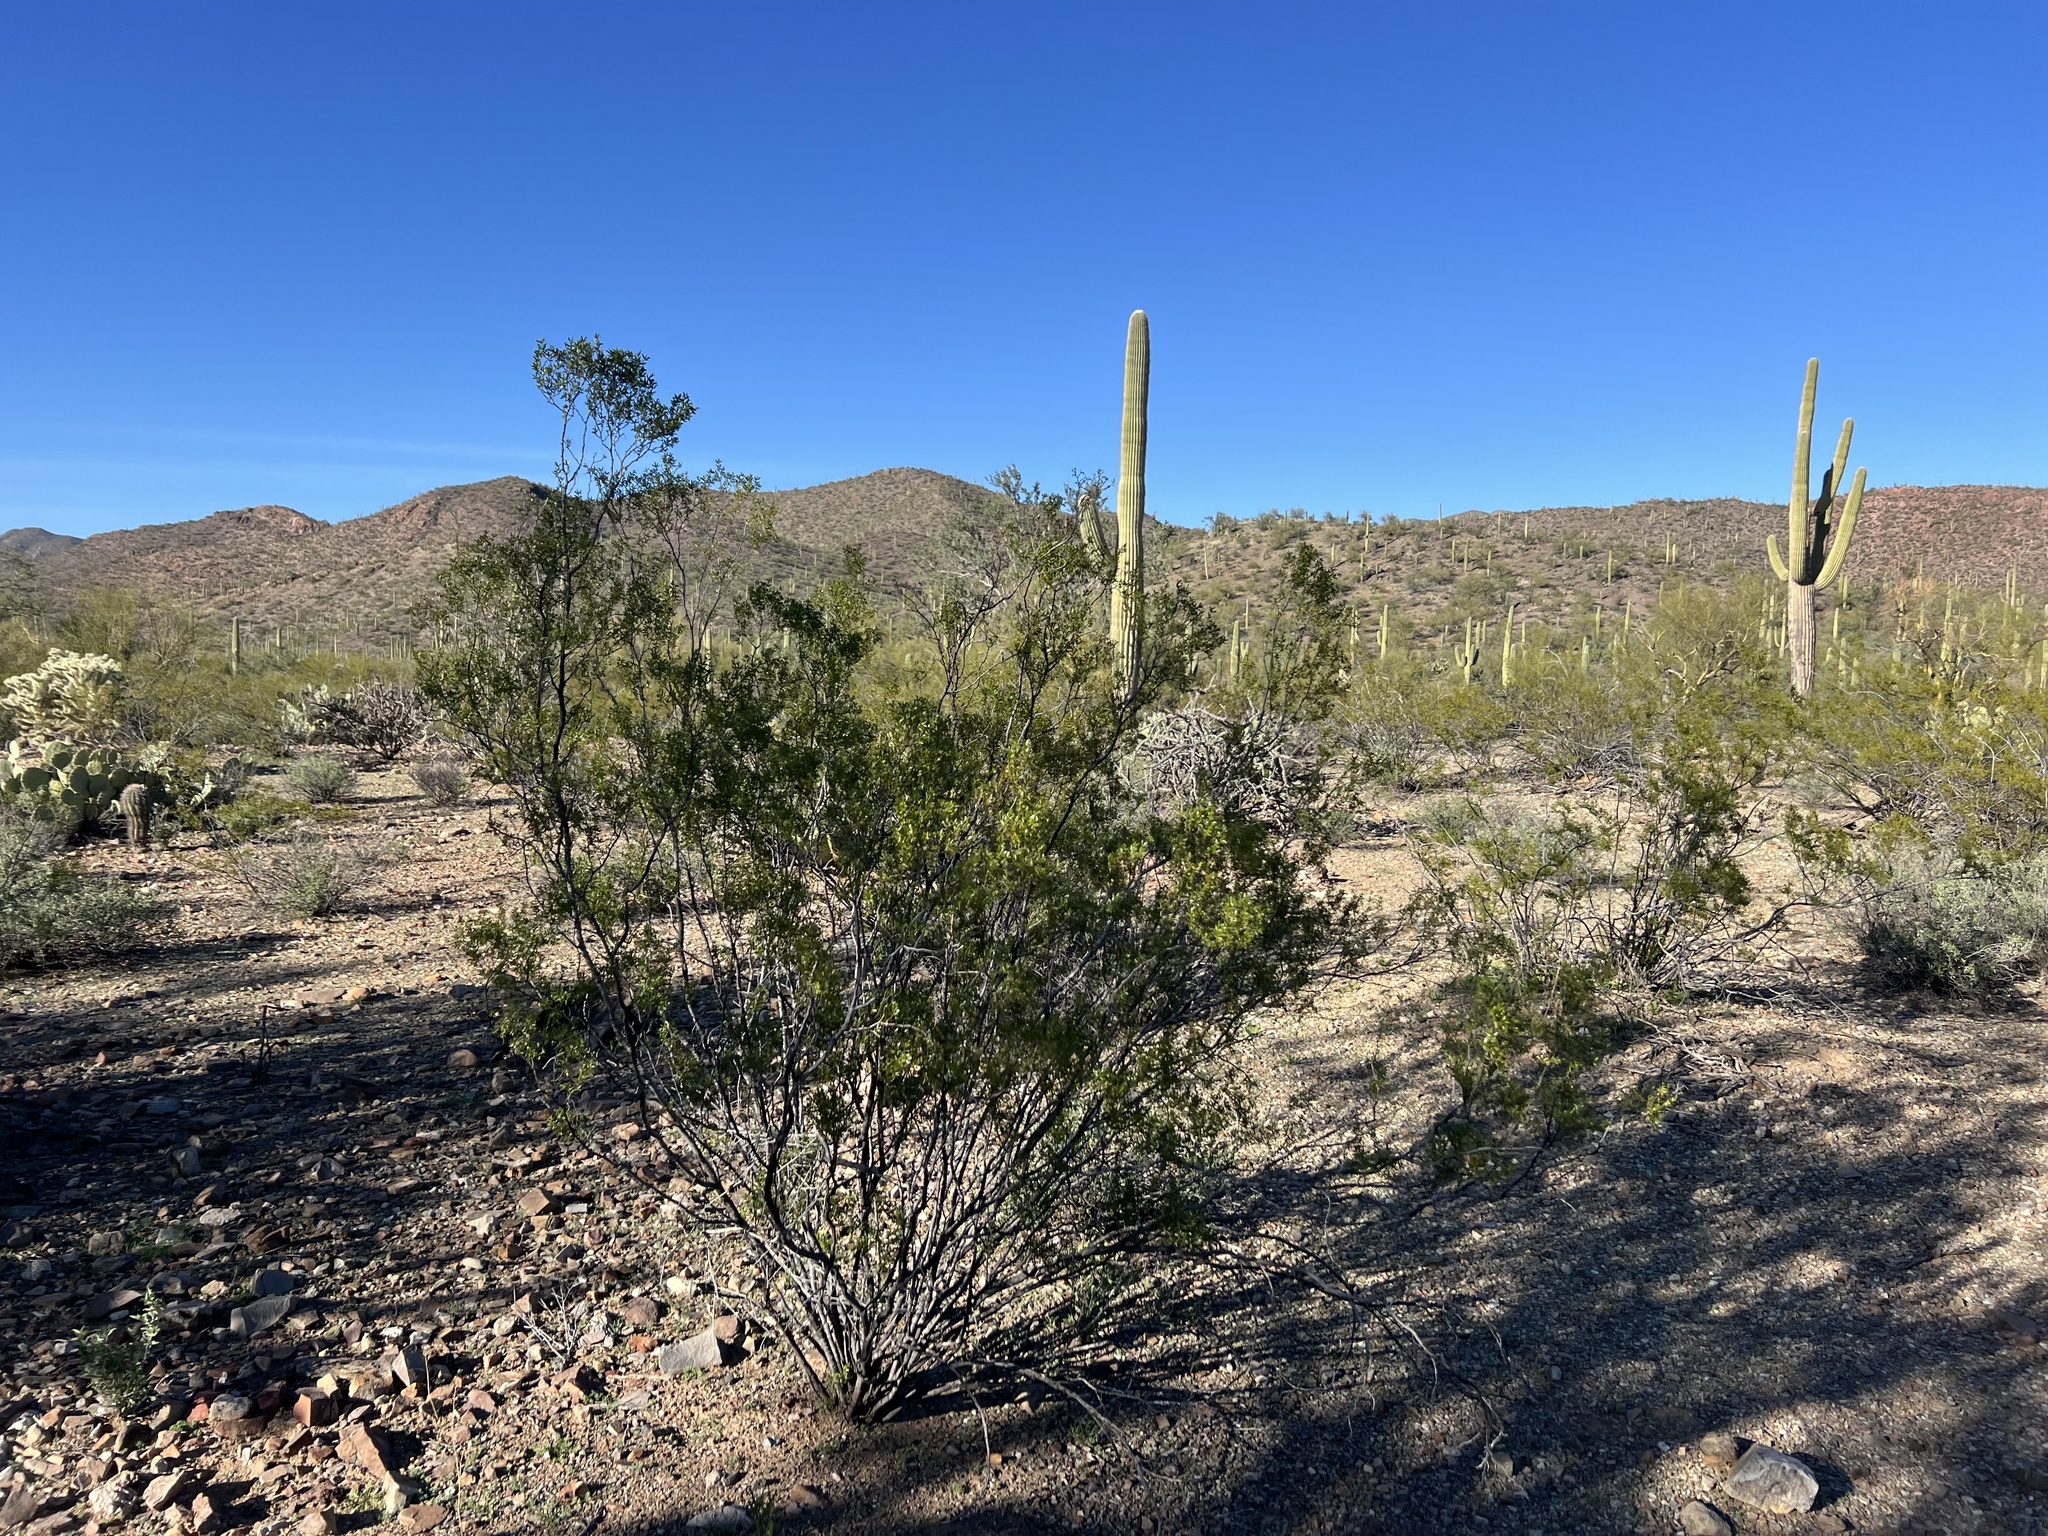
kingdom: Plantae
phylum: Tracheophyta
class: Magnoliopsida
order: Zygophyllales
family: Zygophyllaceae
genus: Larrea
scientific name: Larrea tridentata
